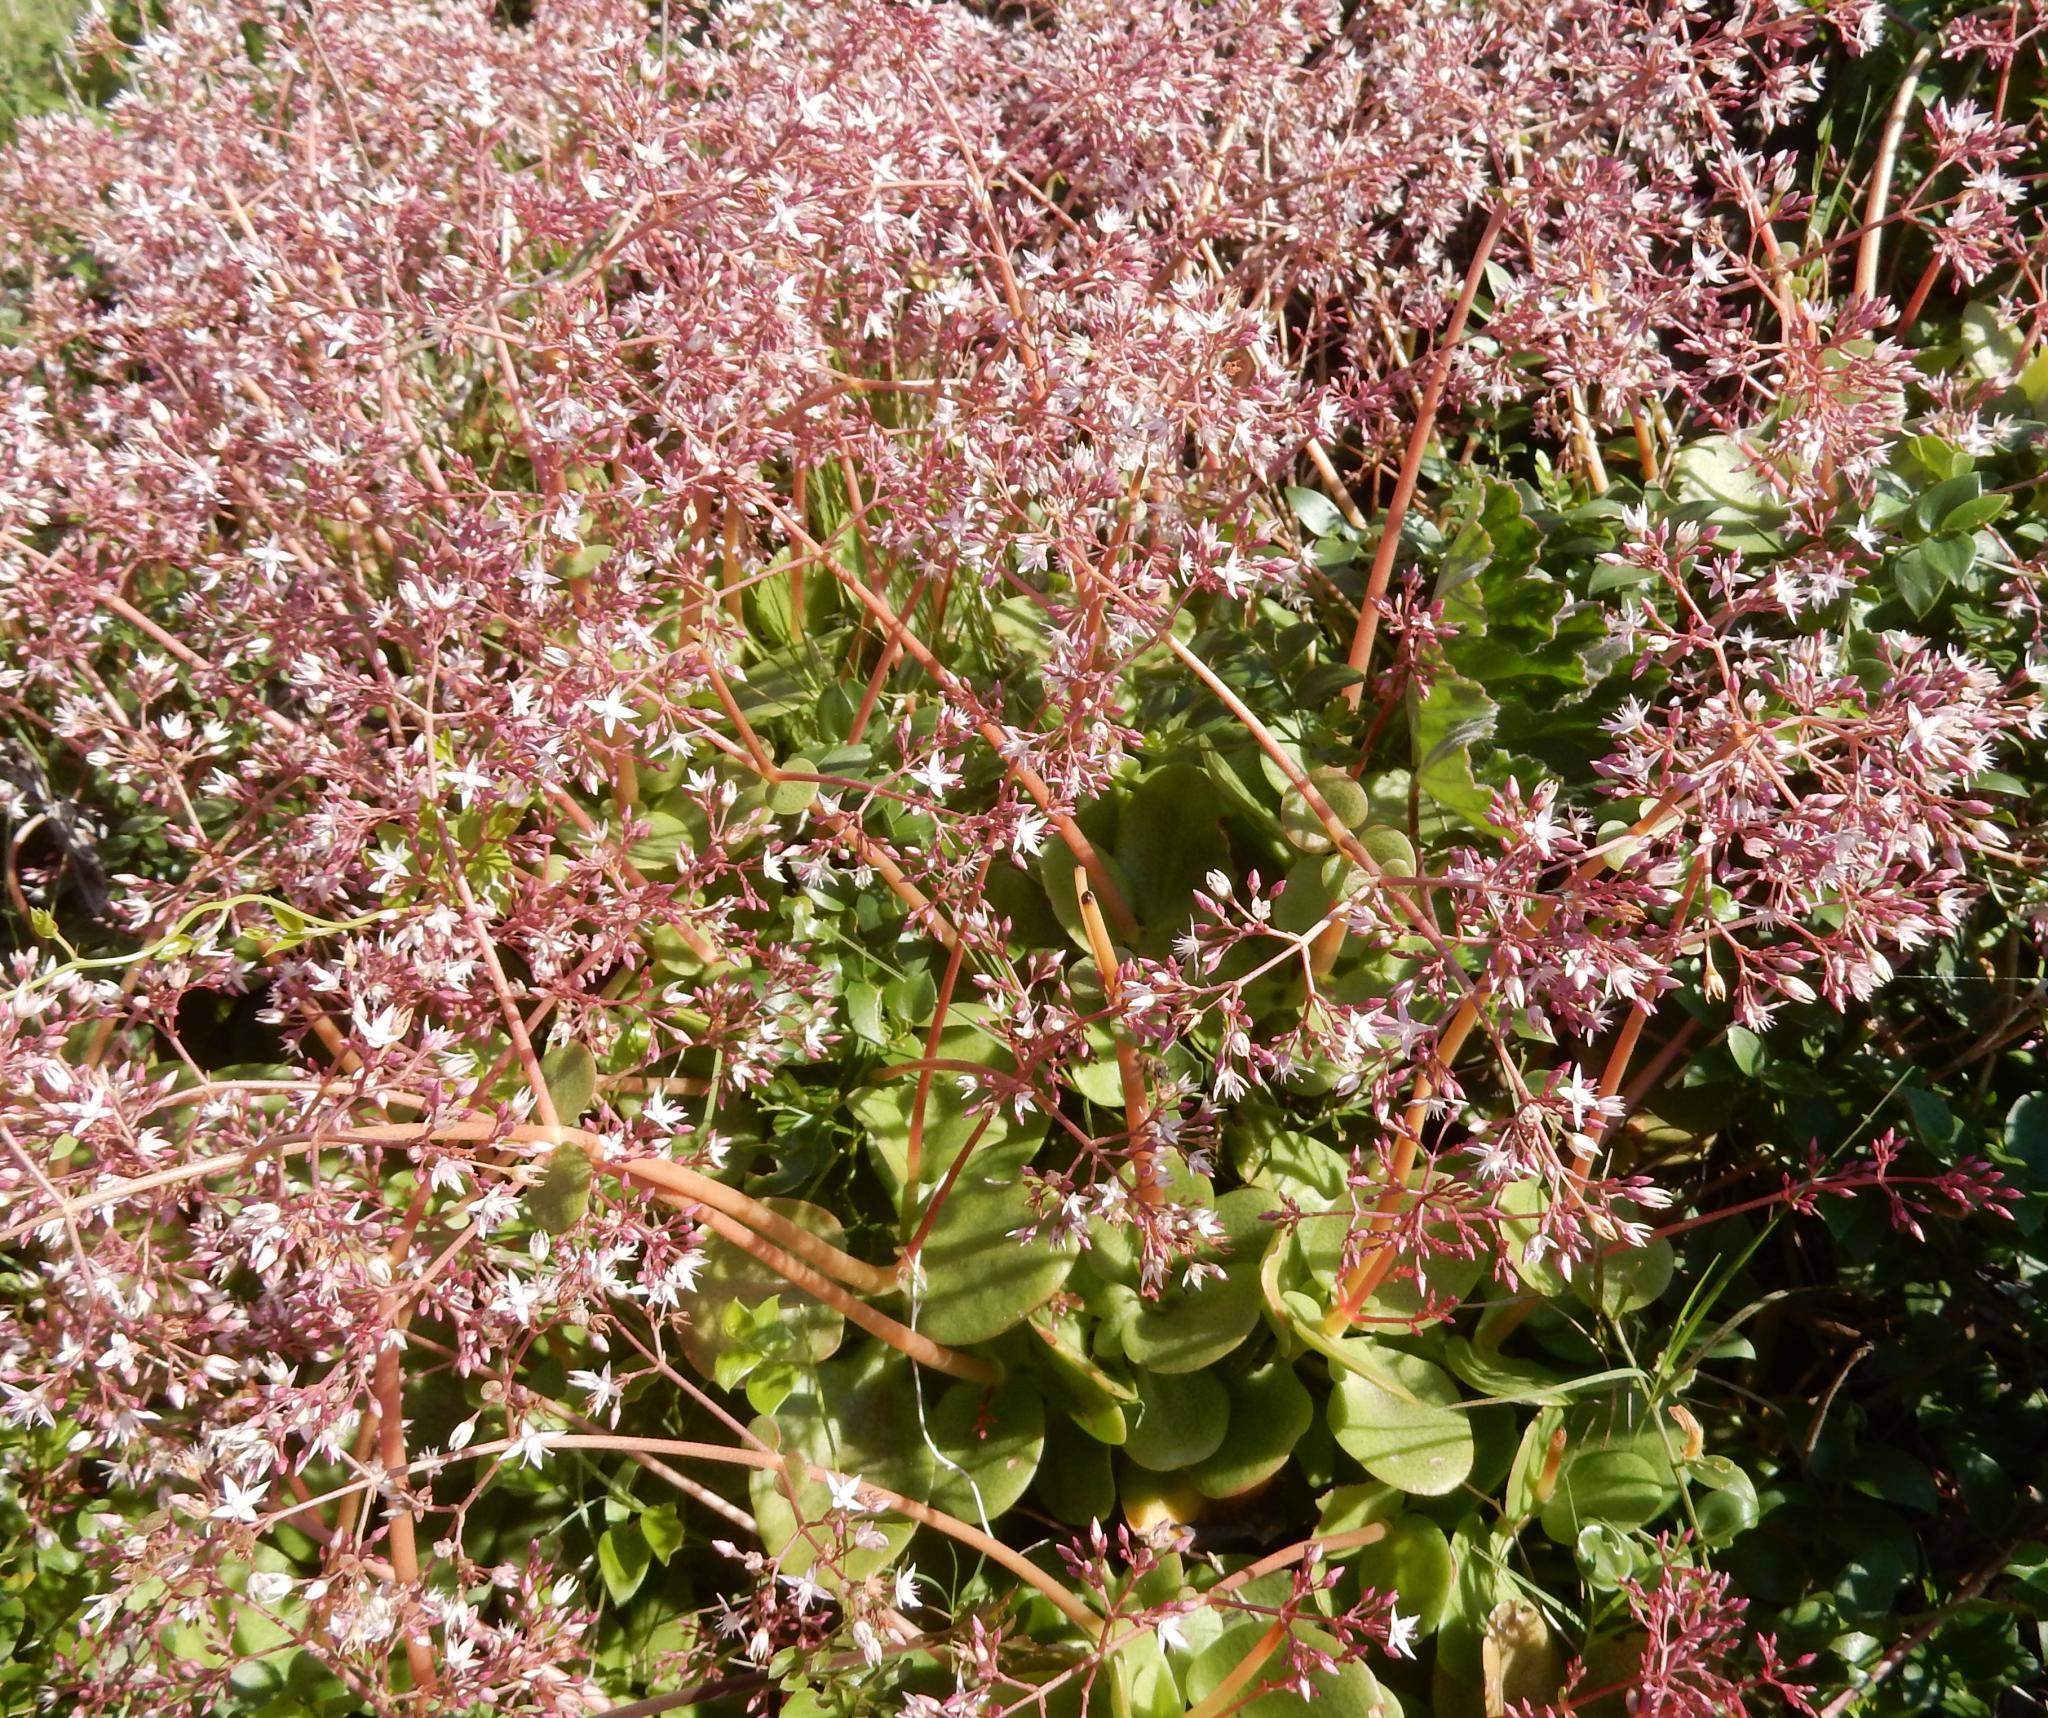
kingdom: Plantae
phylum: Tracheophyta
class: Magnoliopsida
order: Saxifragales
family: Crassulaceae
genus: Crassula
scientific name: Crassula multicava
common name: Cape province pygmyweed
